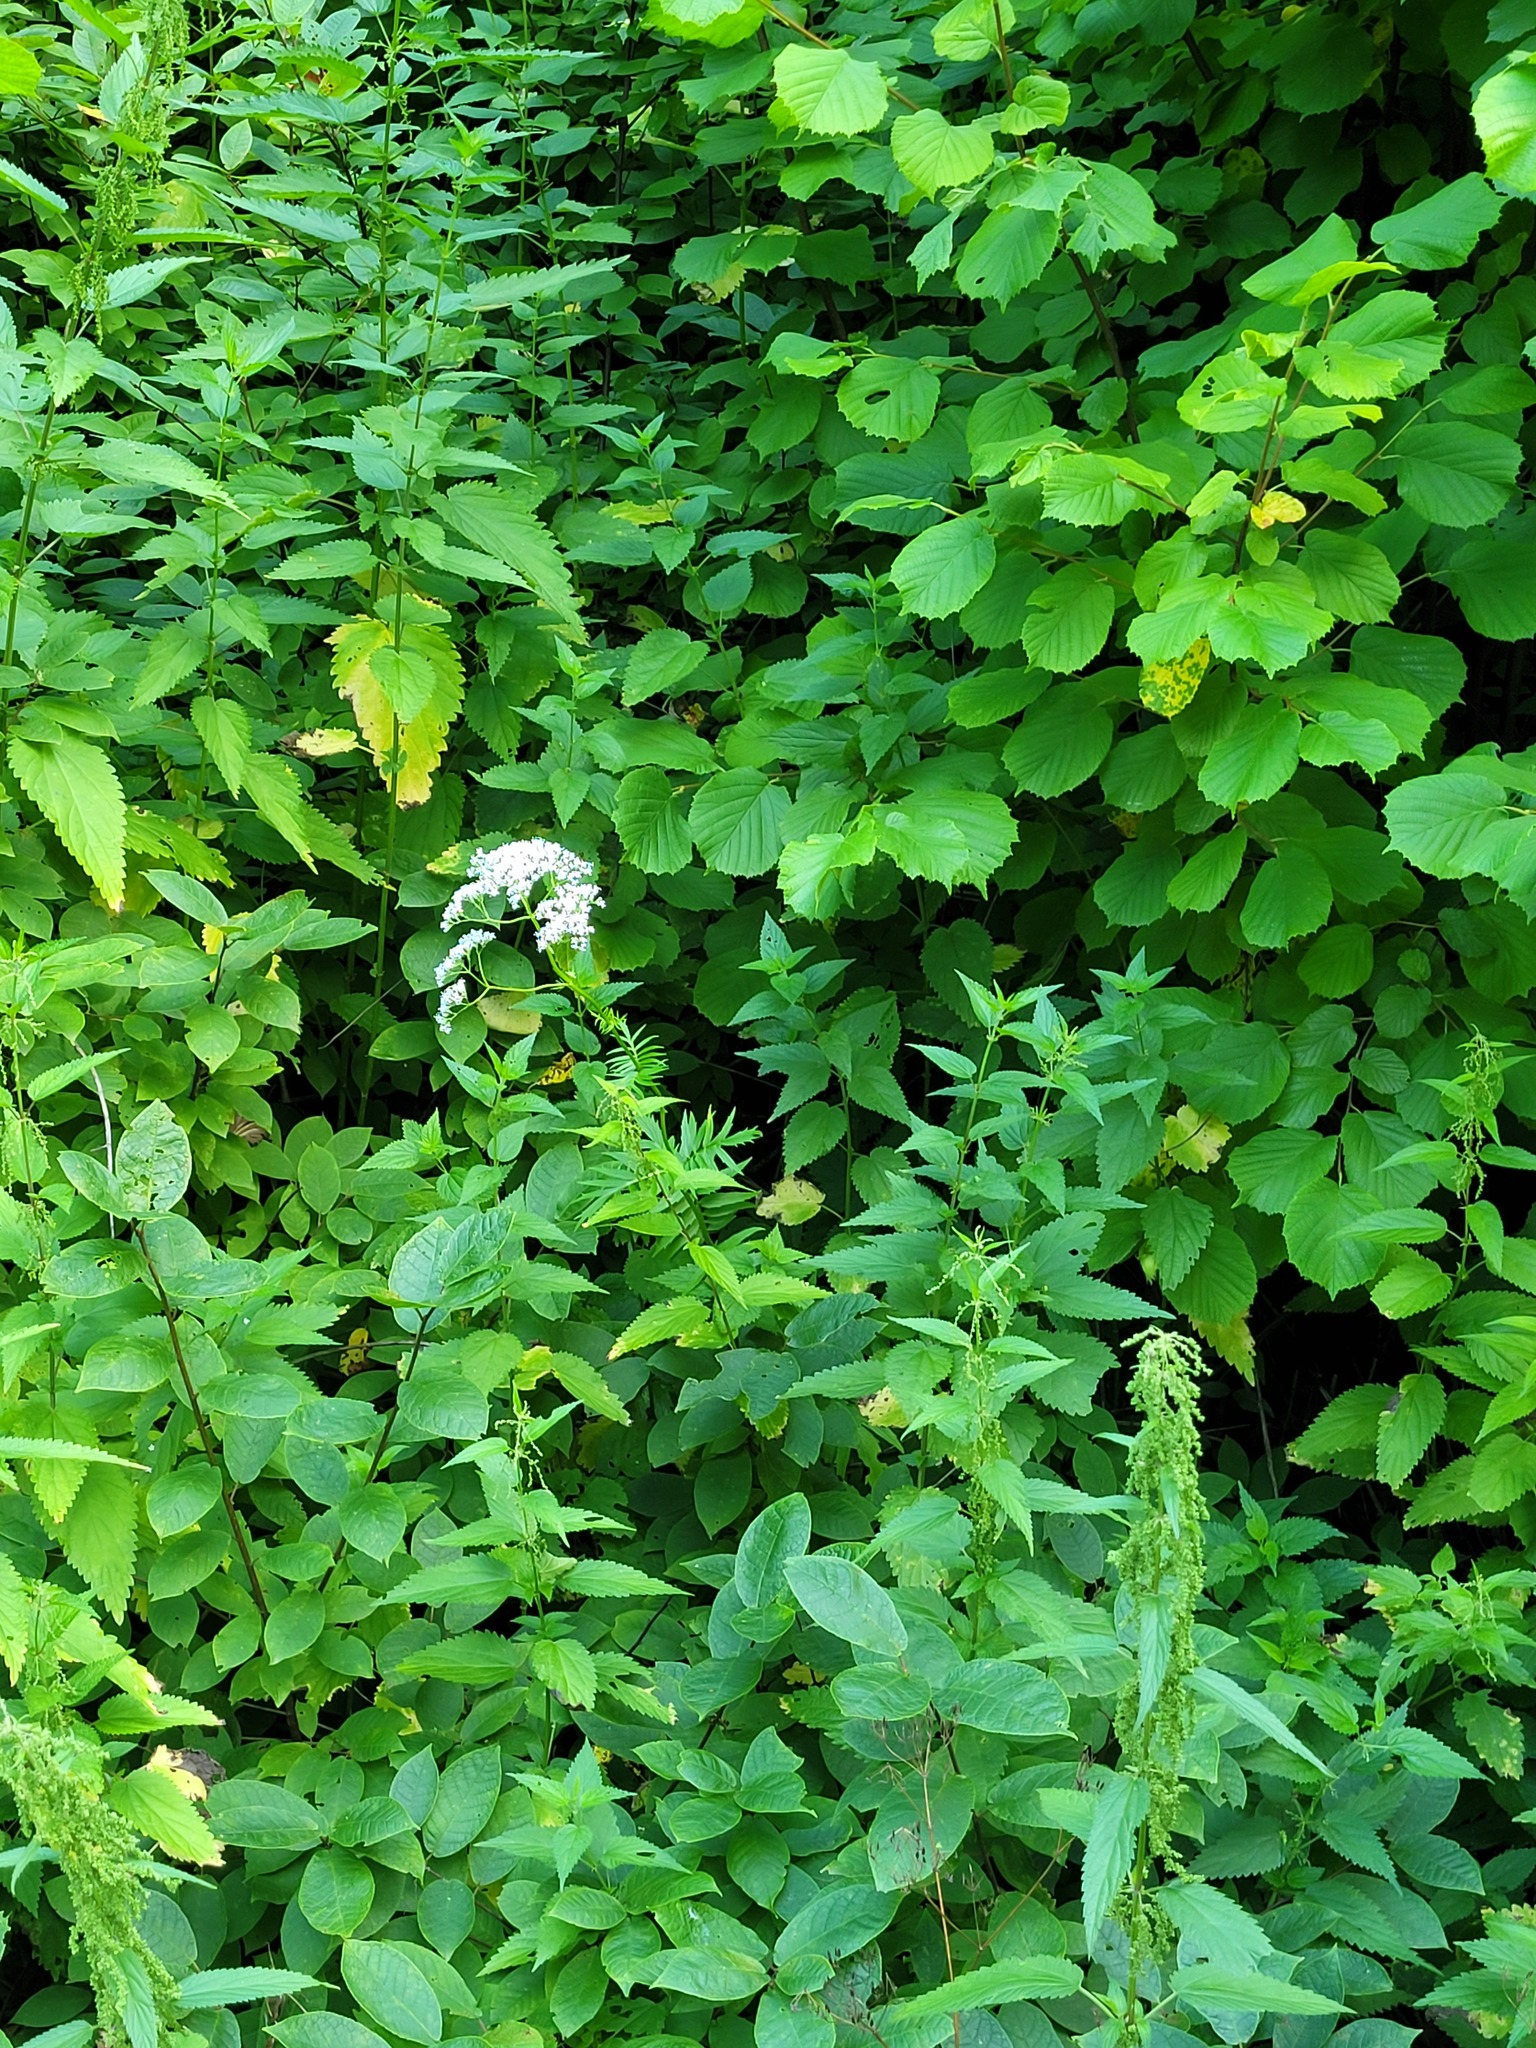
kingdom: Plantae
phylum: Tracheophyta
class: Magnoliopsida
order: Dipsacales
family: Caprifoliaceae
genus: Valeriana
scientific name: Valeriana officinalis
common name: Common valerian
